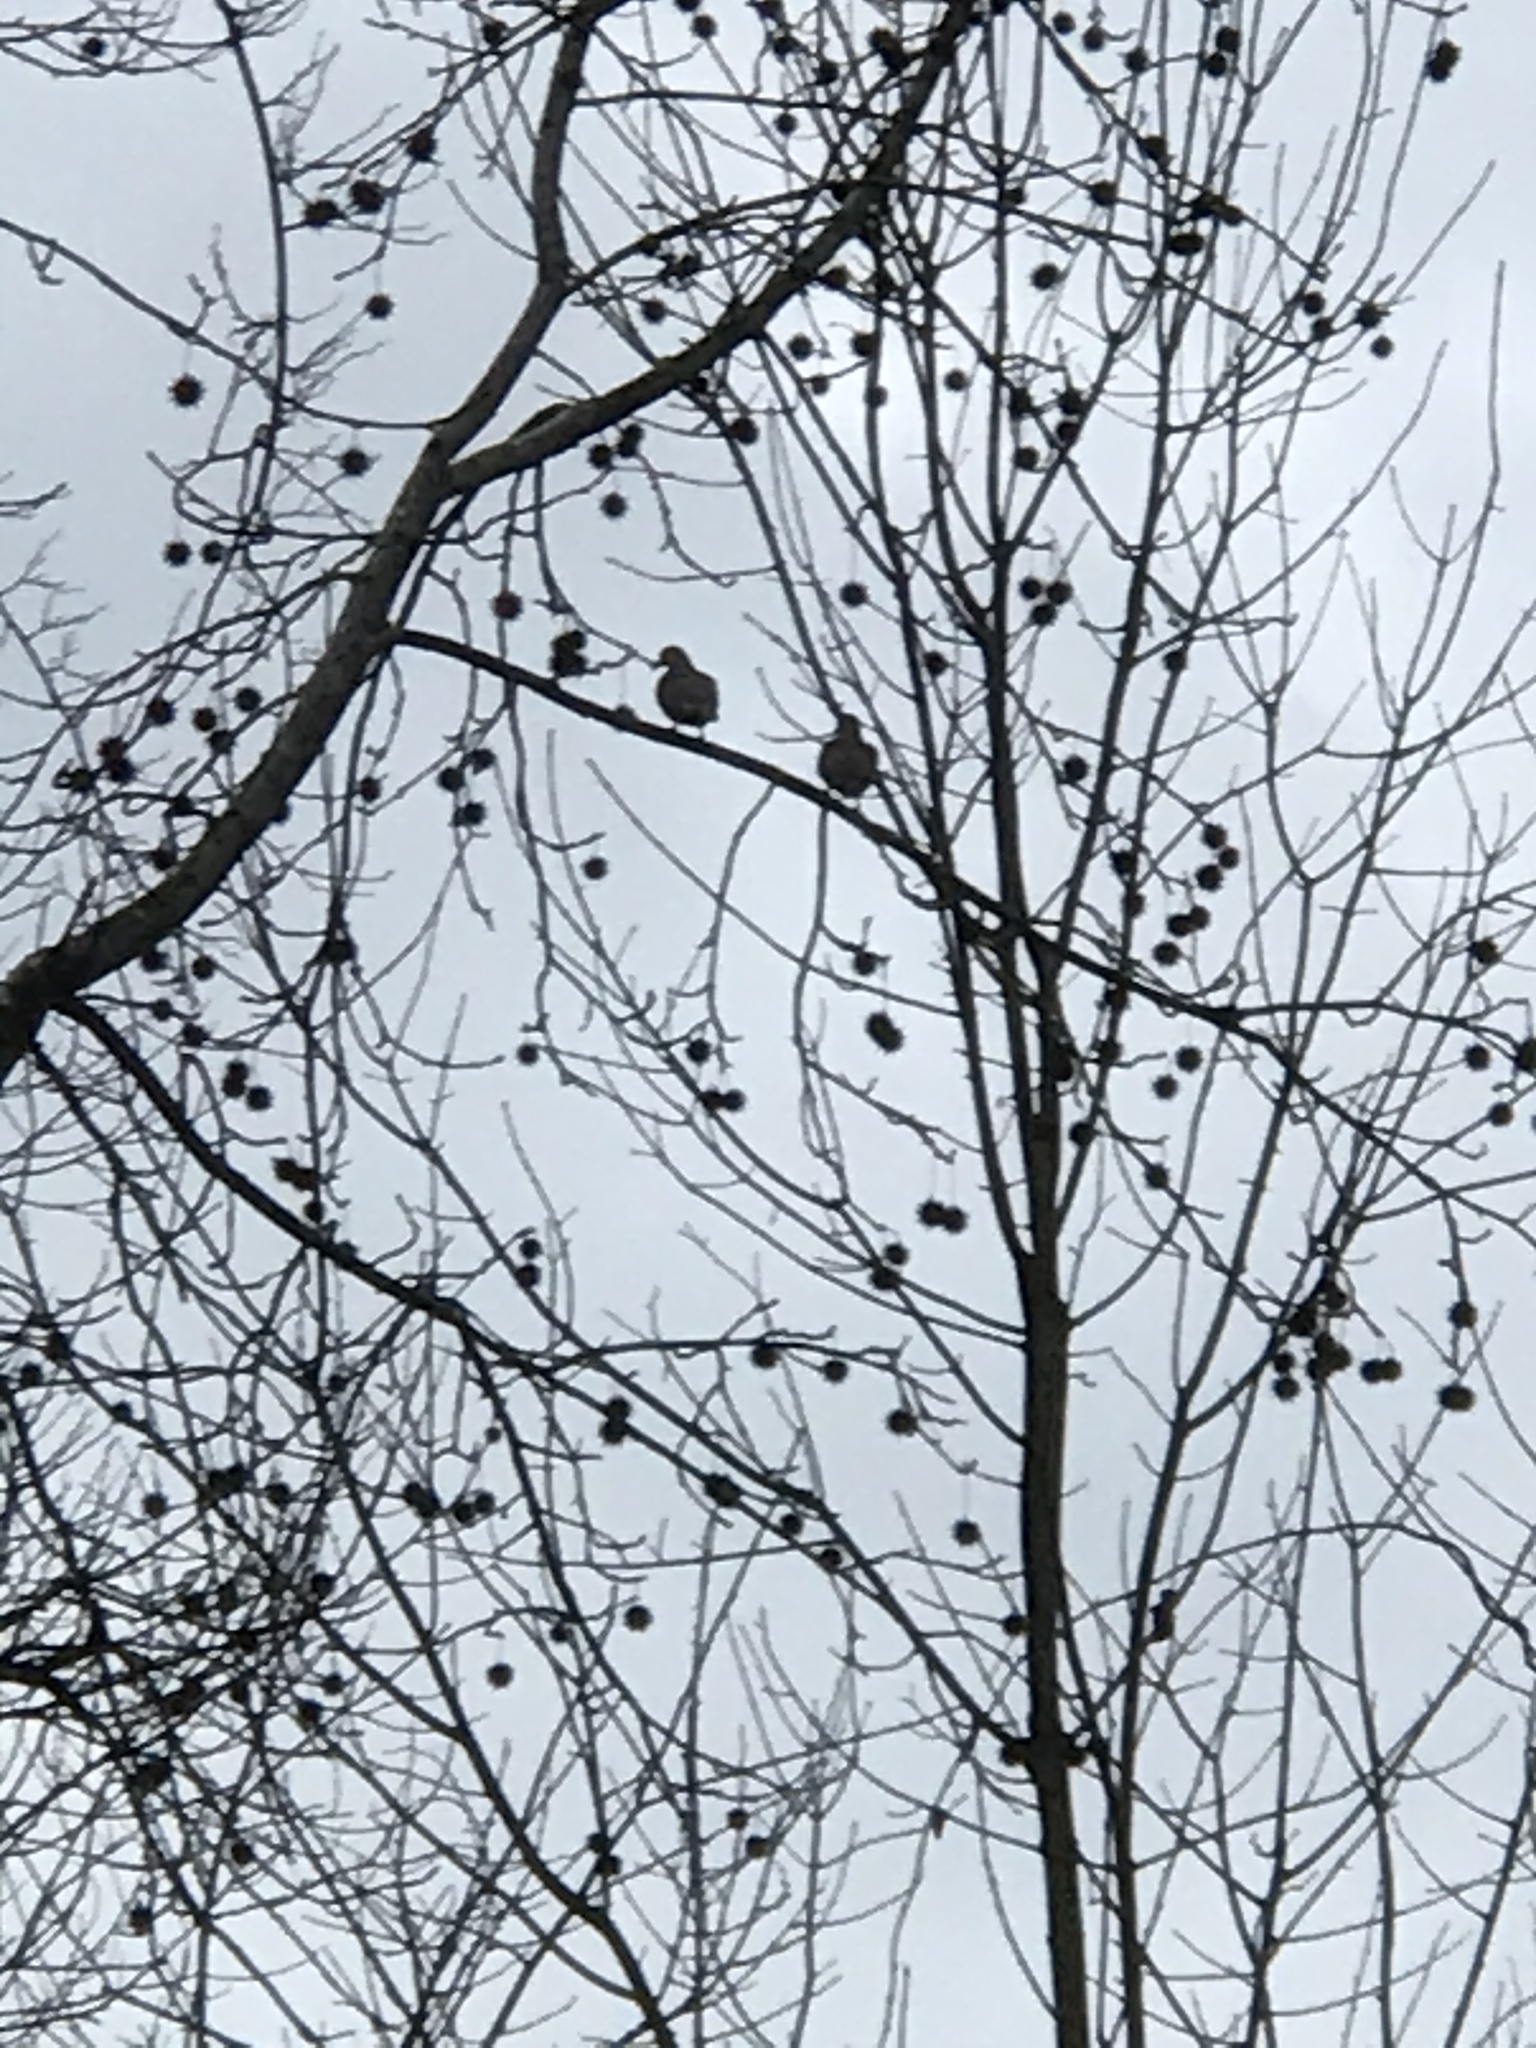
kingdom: Animalia
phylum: Chordata
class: Aves
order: Columbiformes
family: Columbidae
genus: Zenaida
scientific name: Zenaida macroura
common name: Mourning dove
